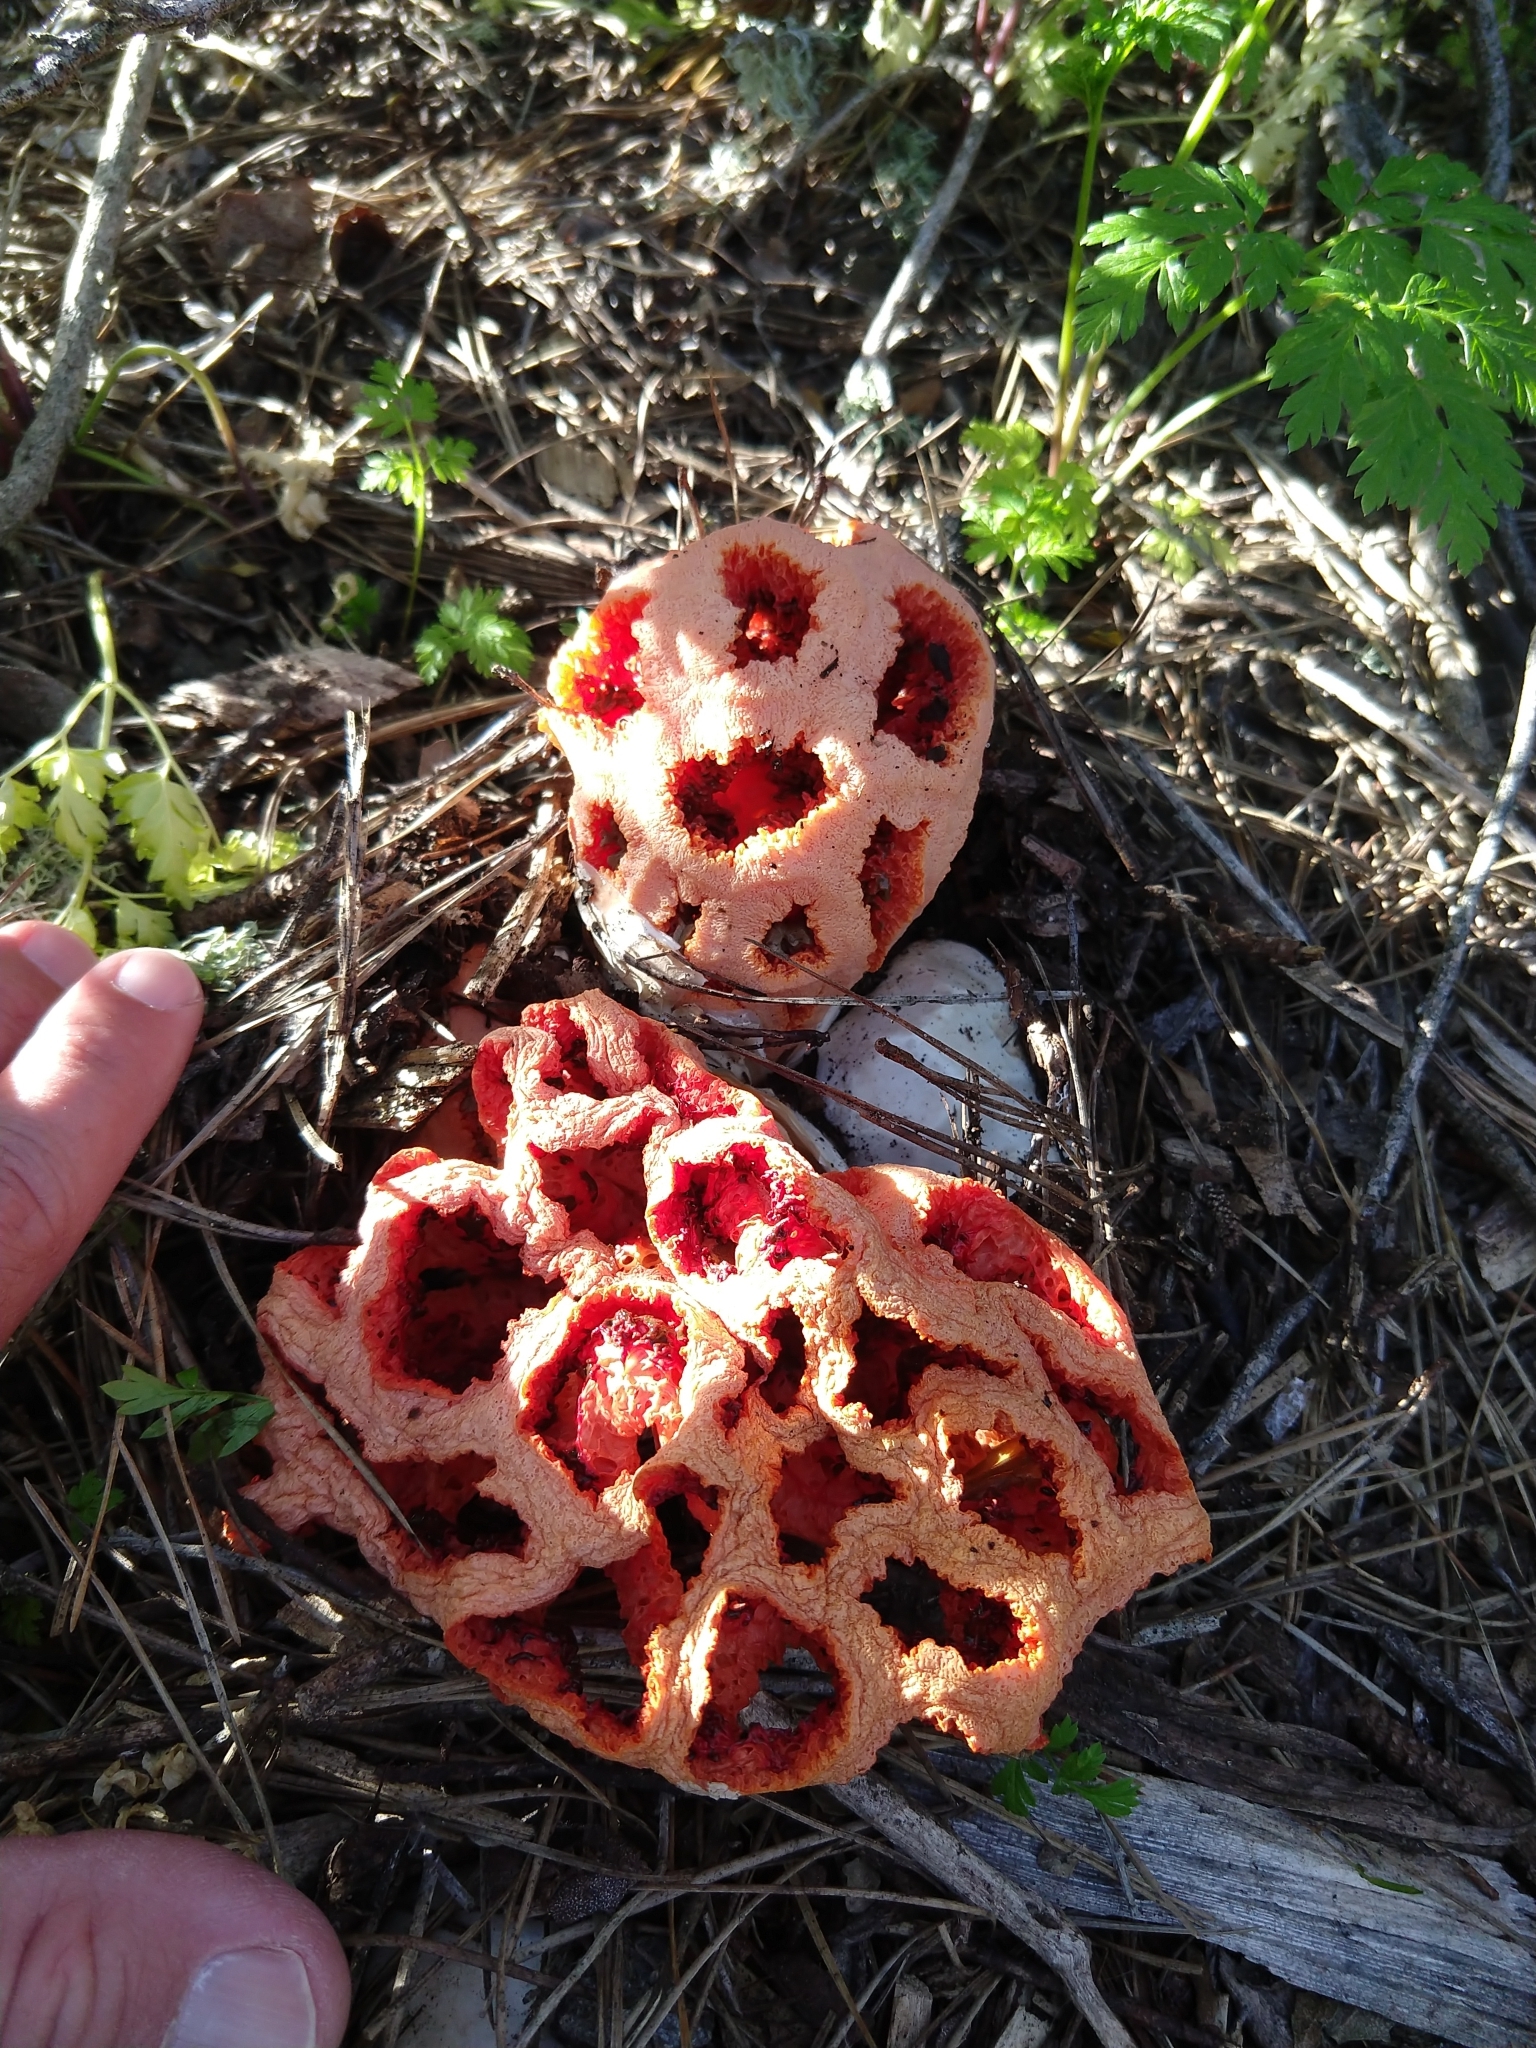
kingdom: Fungi
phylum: Basidiomycota
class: Agaricomycetes
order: Phallales
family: Phallaceae
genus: Clathrus
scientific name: Clathrus ruber
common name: Red cage
